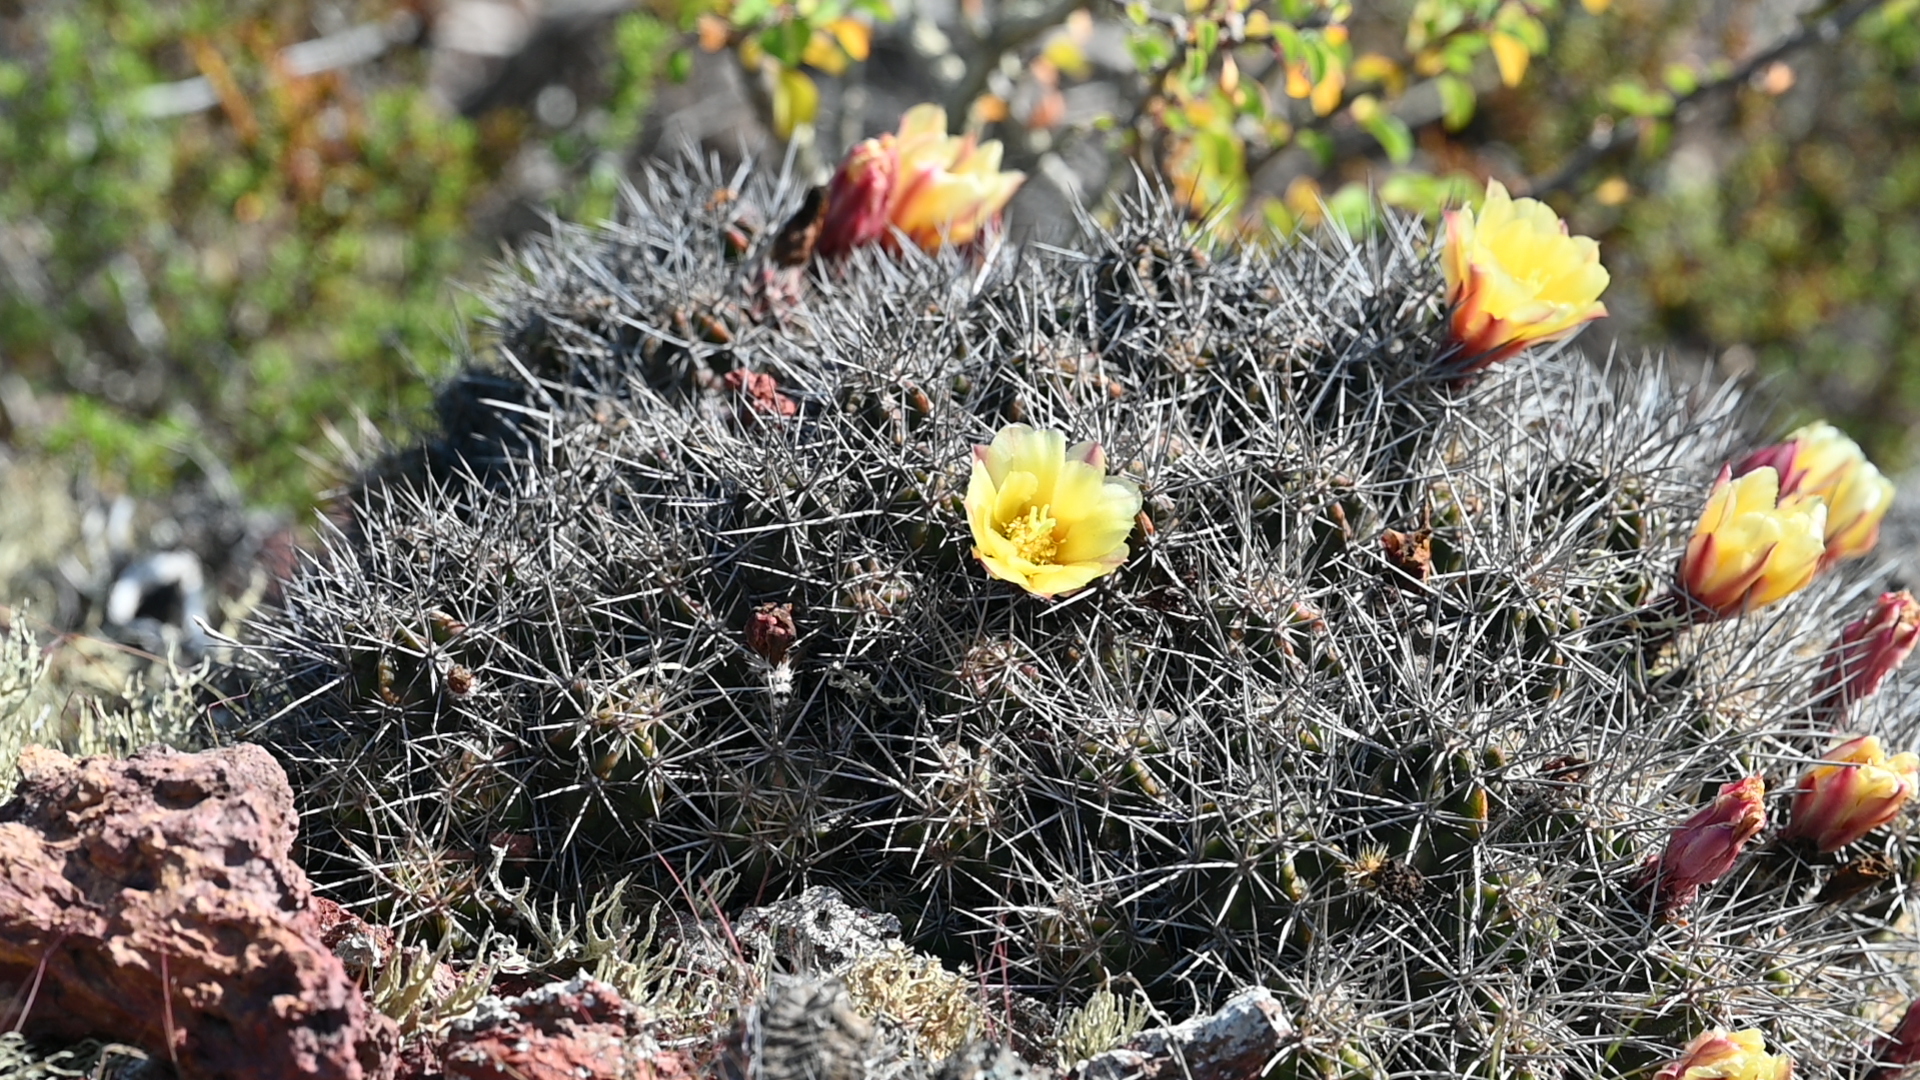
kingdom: Plantae
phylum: Tracheophyta
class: Magnoliopsida
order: Caryophyllales
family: Cactaceae
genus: Echinocereus
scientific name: Echinocereus maritimus
